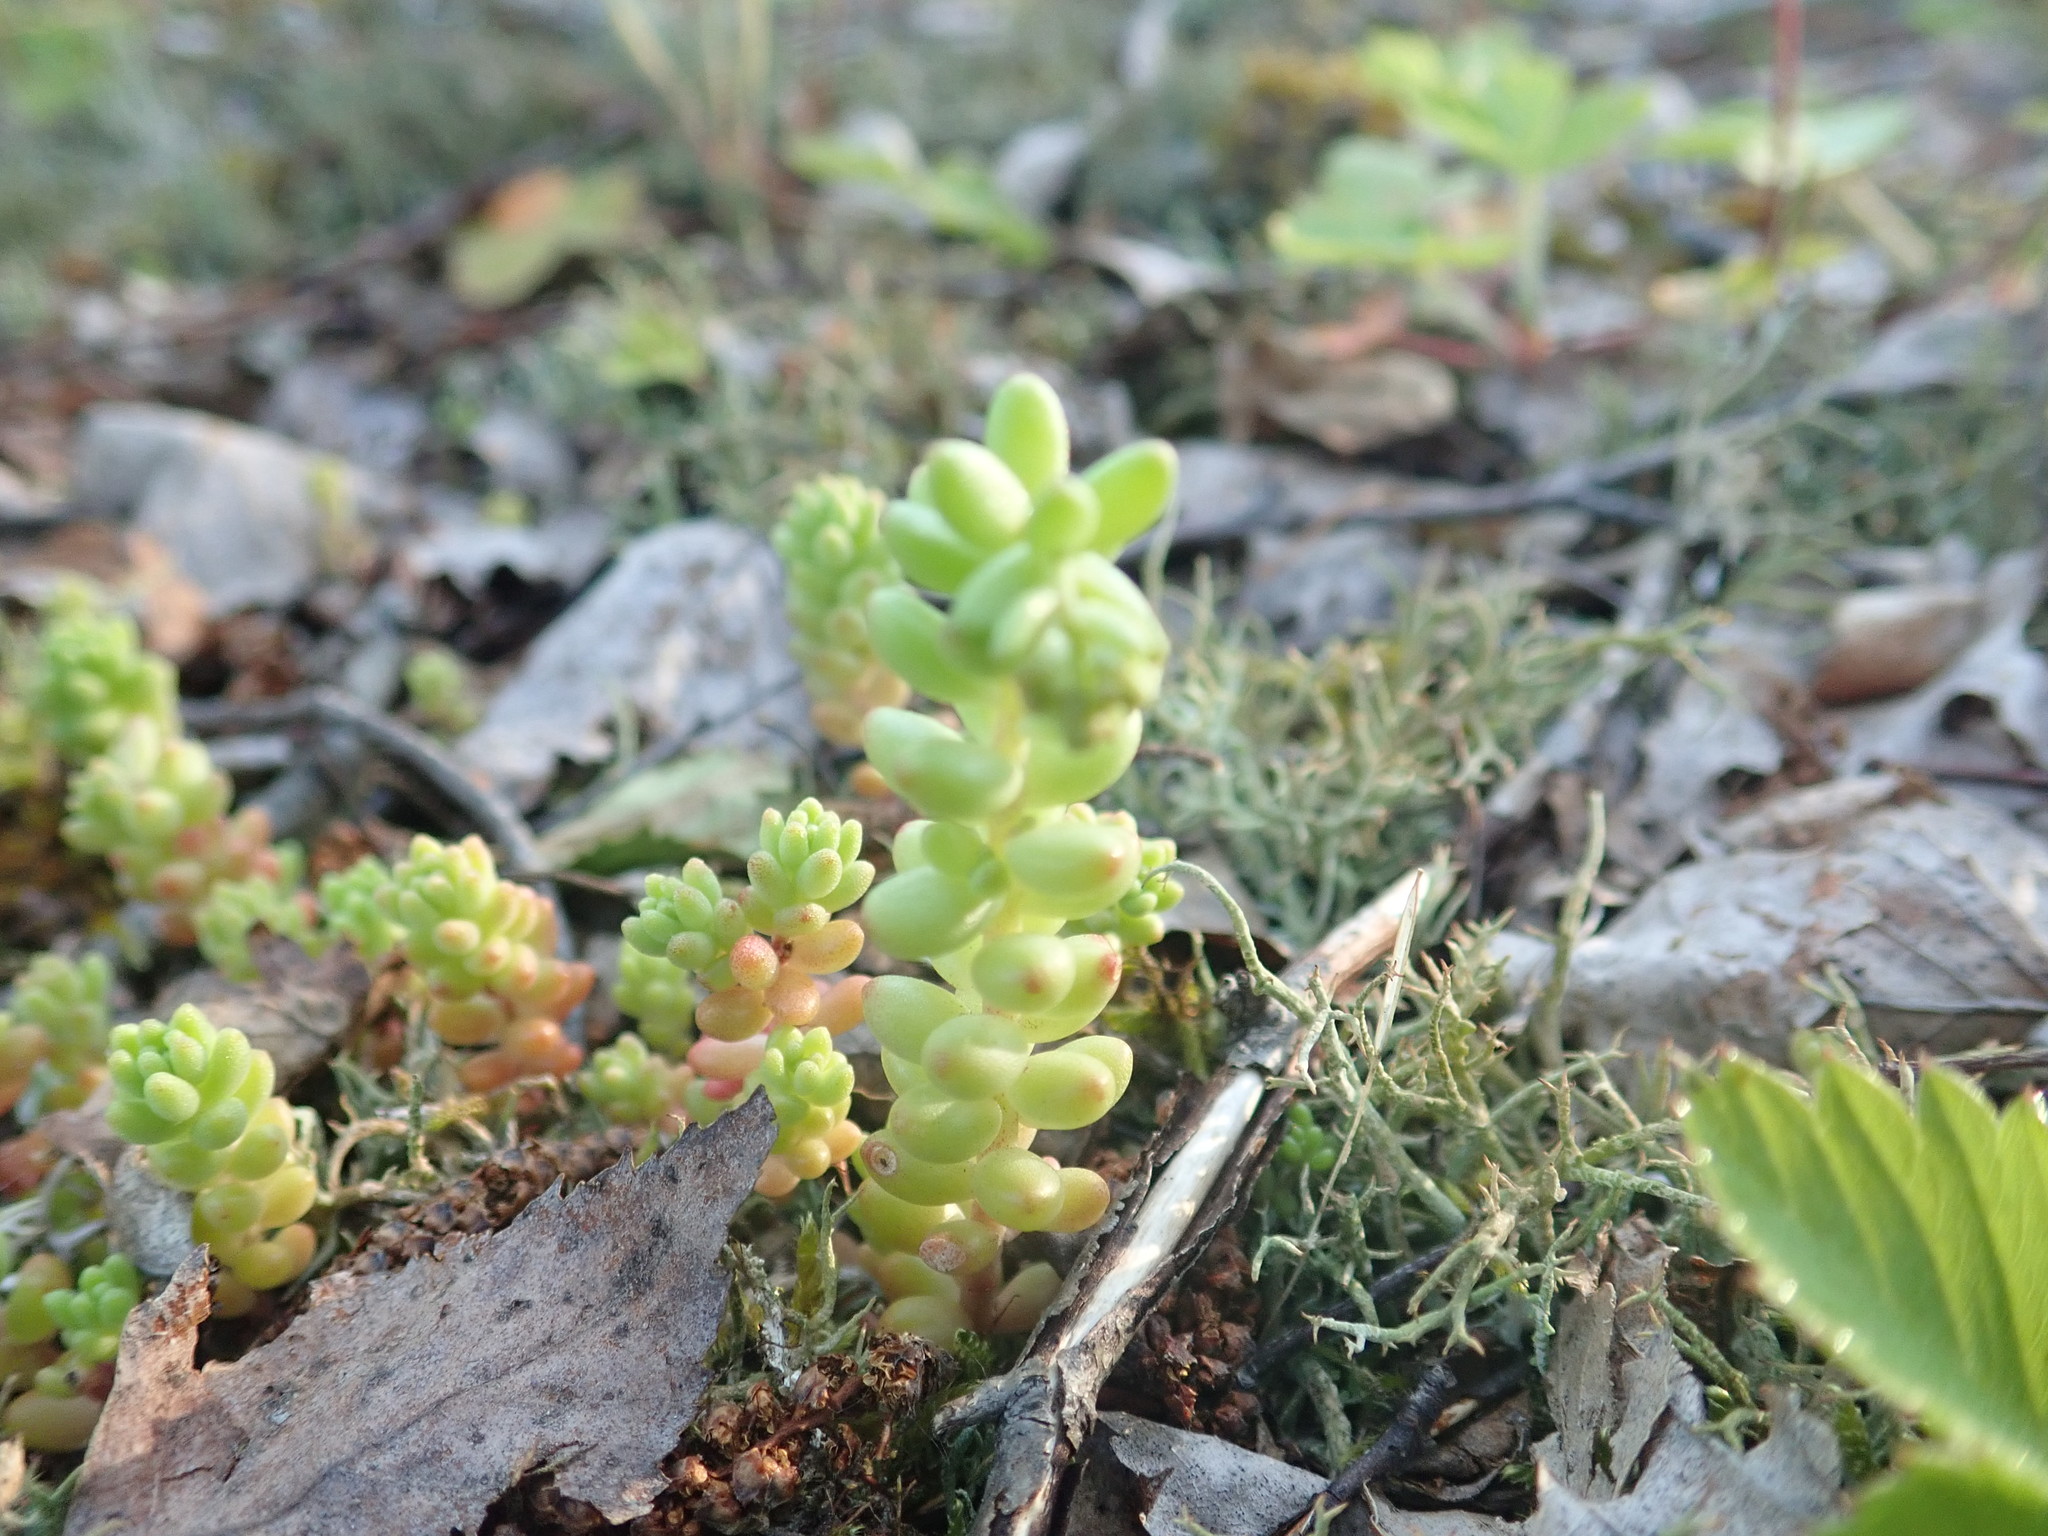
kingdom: Plantae
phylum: Tracheophyta
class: Magnoliopsida
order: Saxifragales
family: Crassulaceae
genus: Sedum
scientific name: Sedum album
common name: White stonecrop
